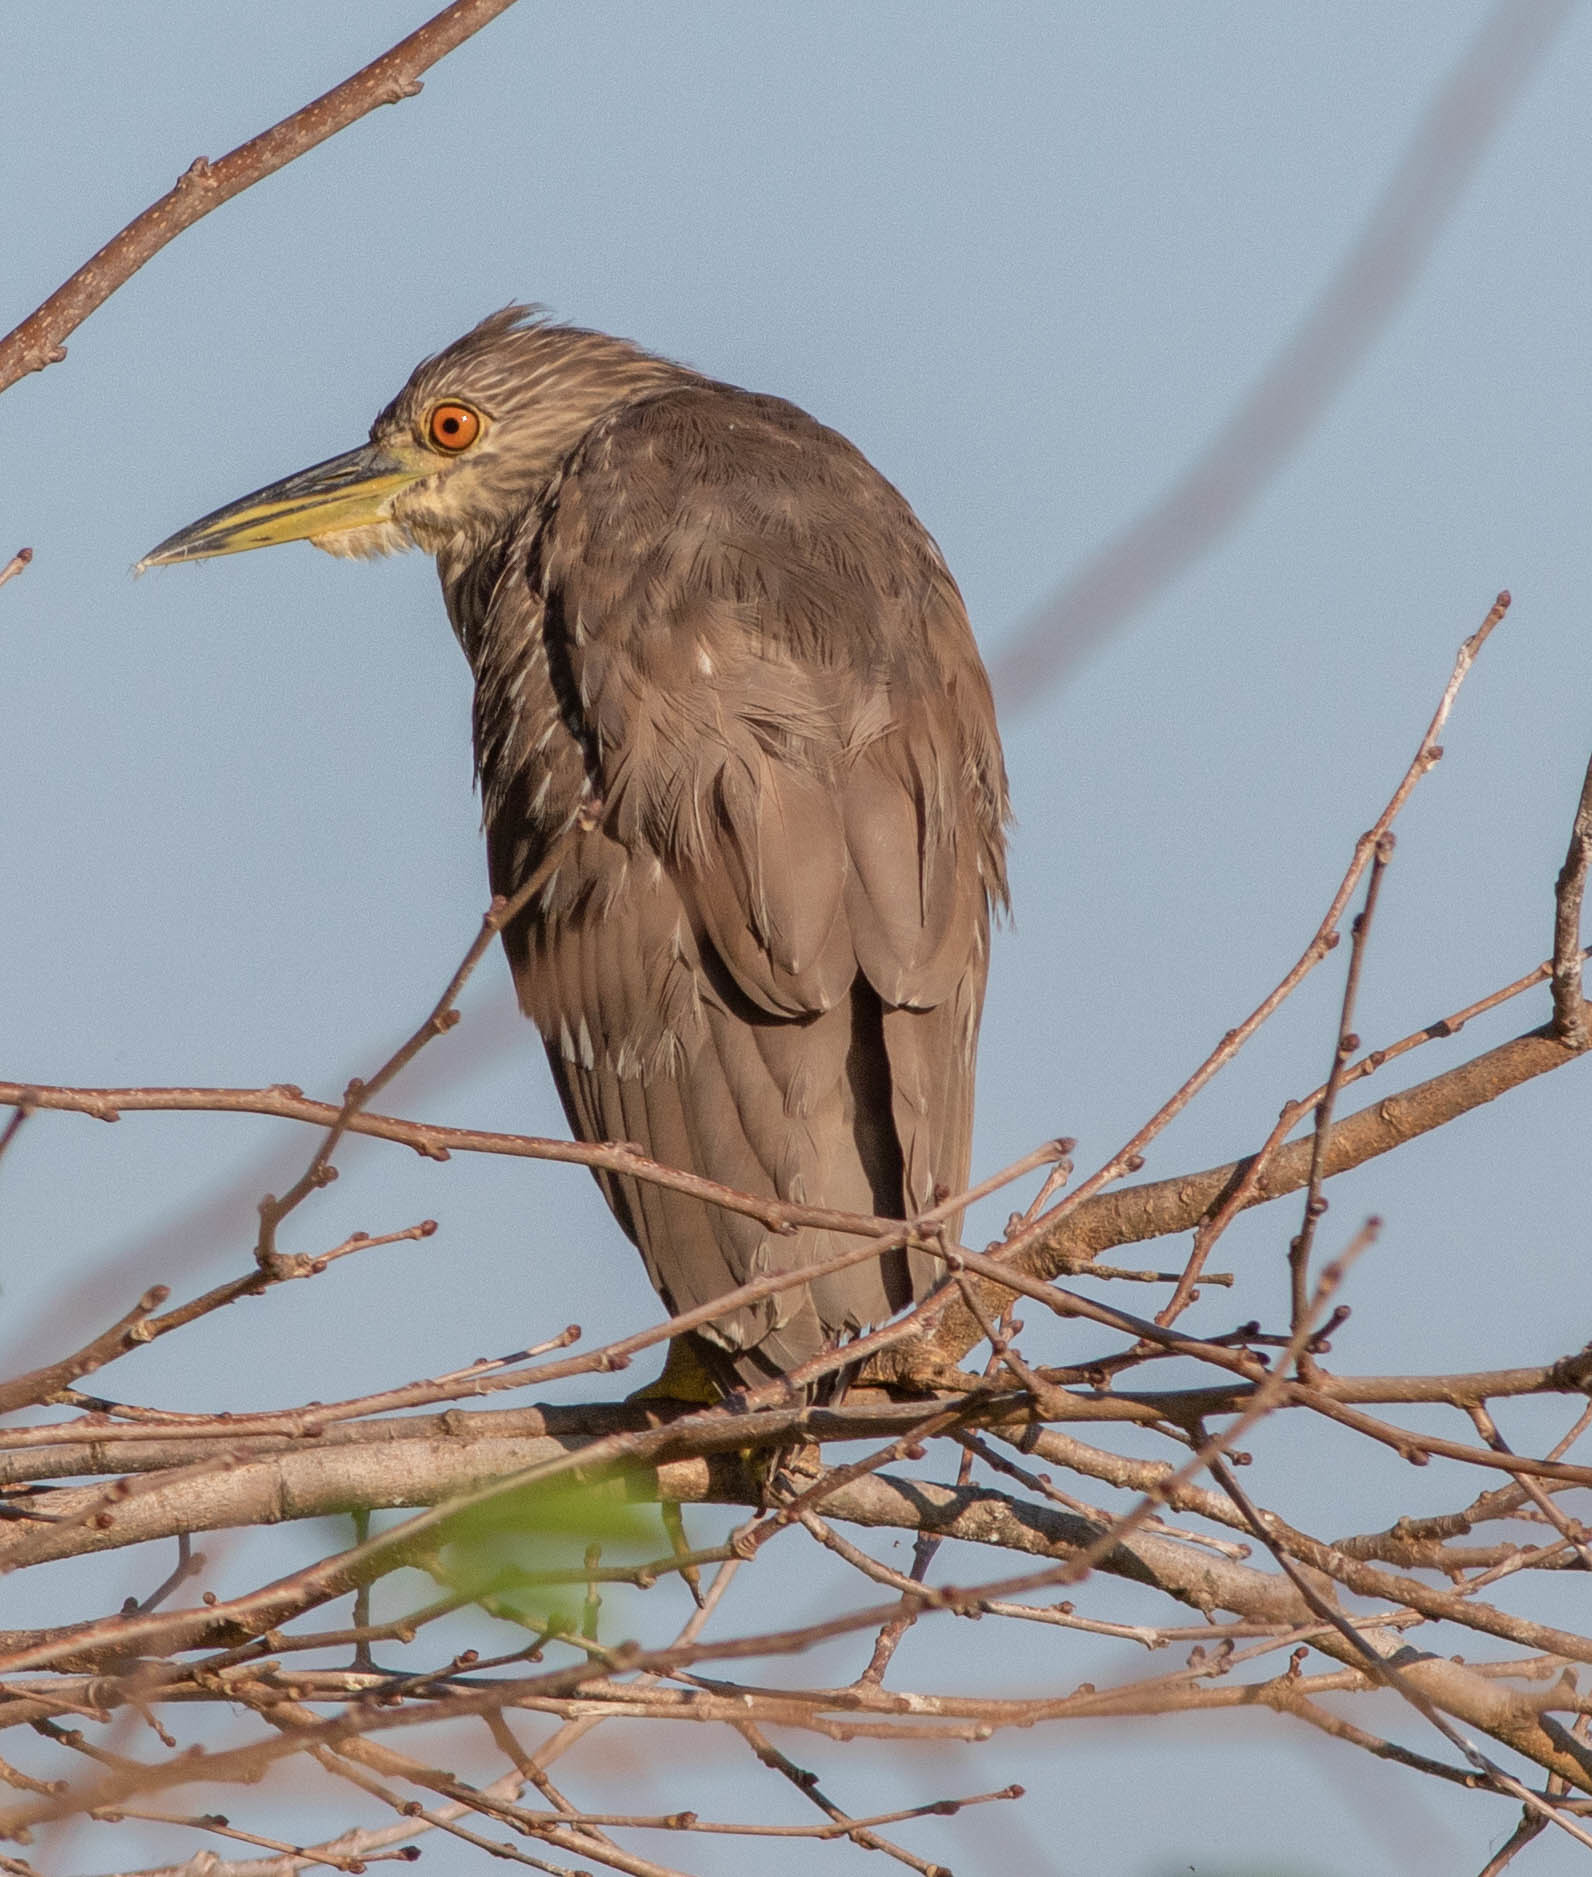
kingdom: Animalia
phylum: Chordata
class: Aves
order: Pelecaniformes
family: Ardeidae
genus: Nycticorax
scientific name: Nycticorax nycticorax
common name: Black-crowned night heron
